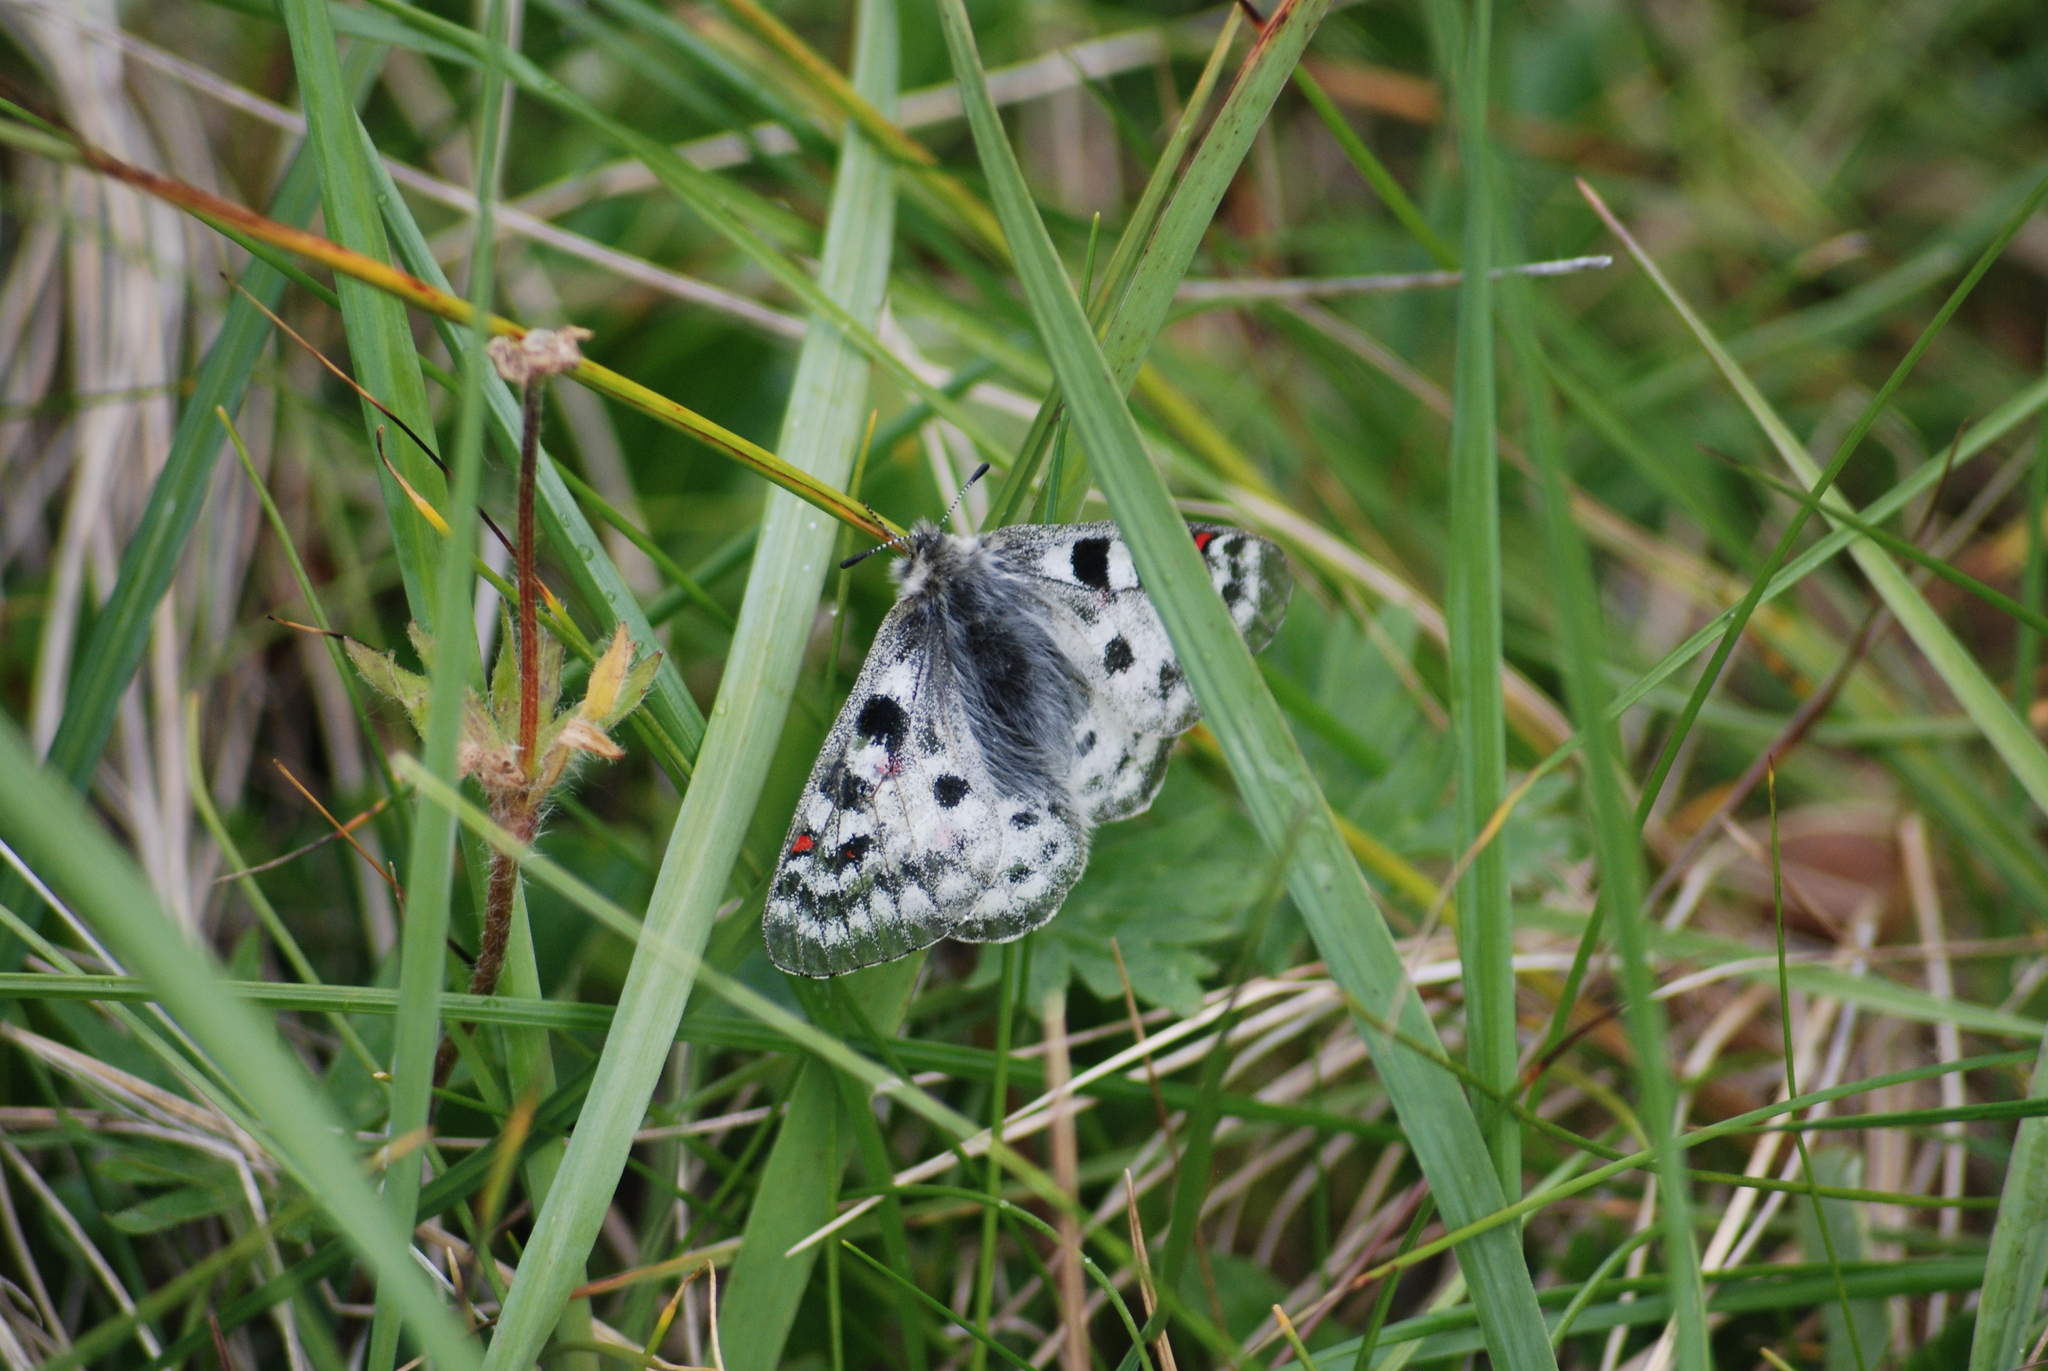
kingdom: Animalia
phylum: Arthropoda
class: Insecta
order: Lepidoptera
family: Papilionidae
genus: Parnassius
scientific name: Parnassius phoebus
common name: Small apollo
